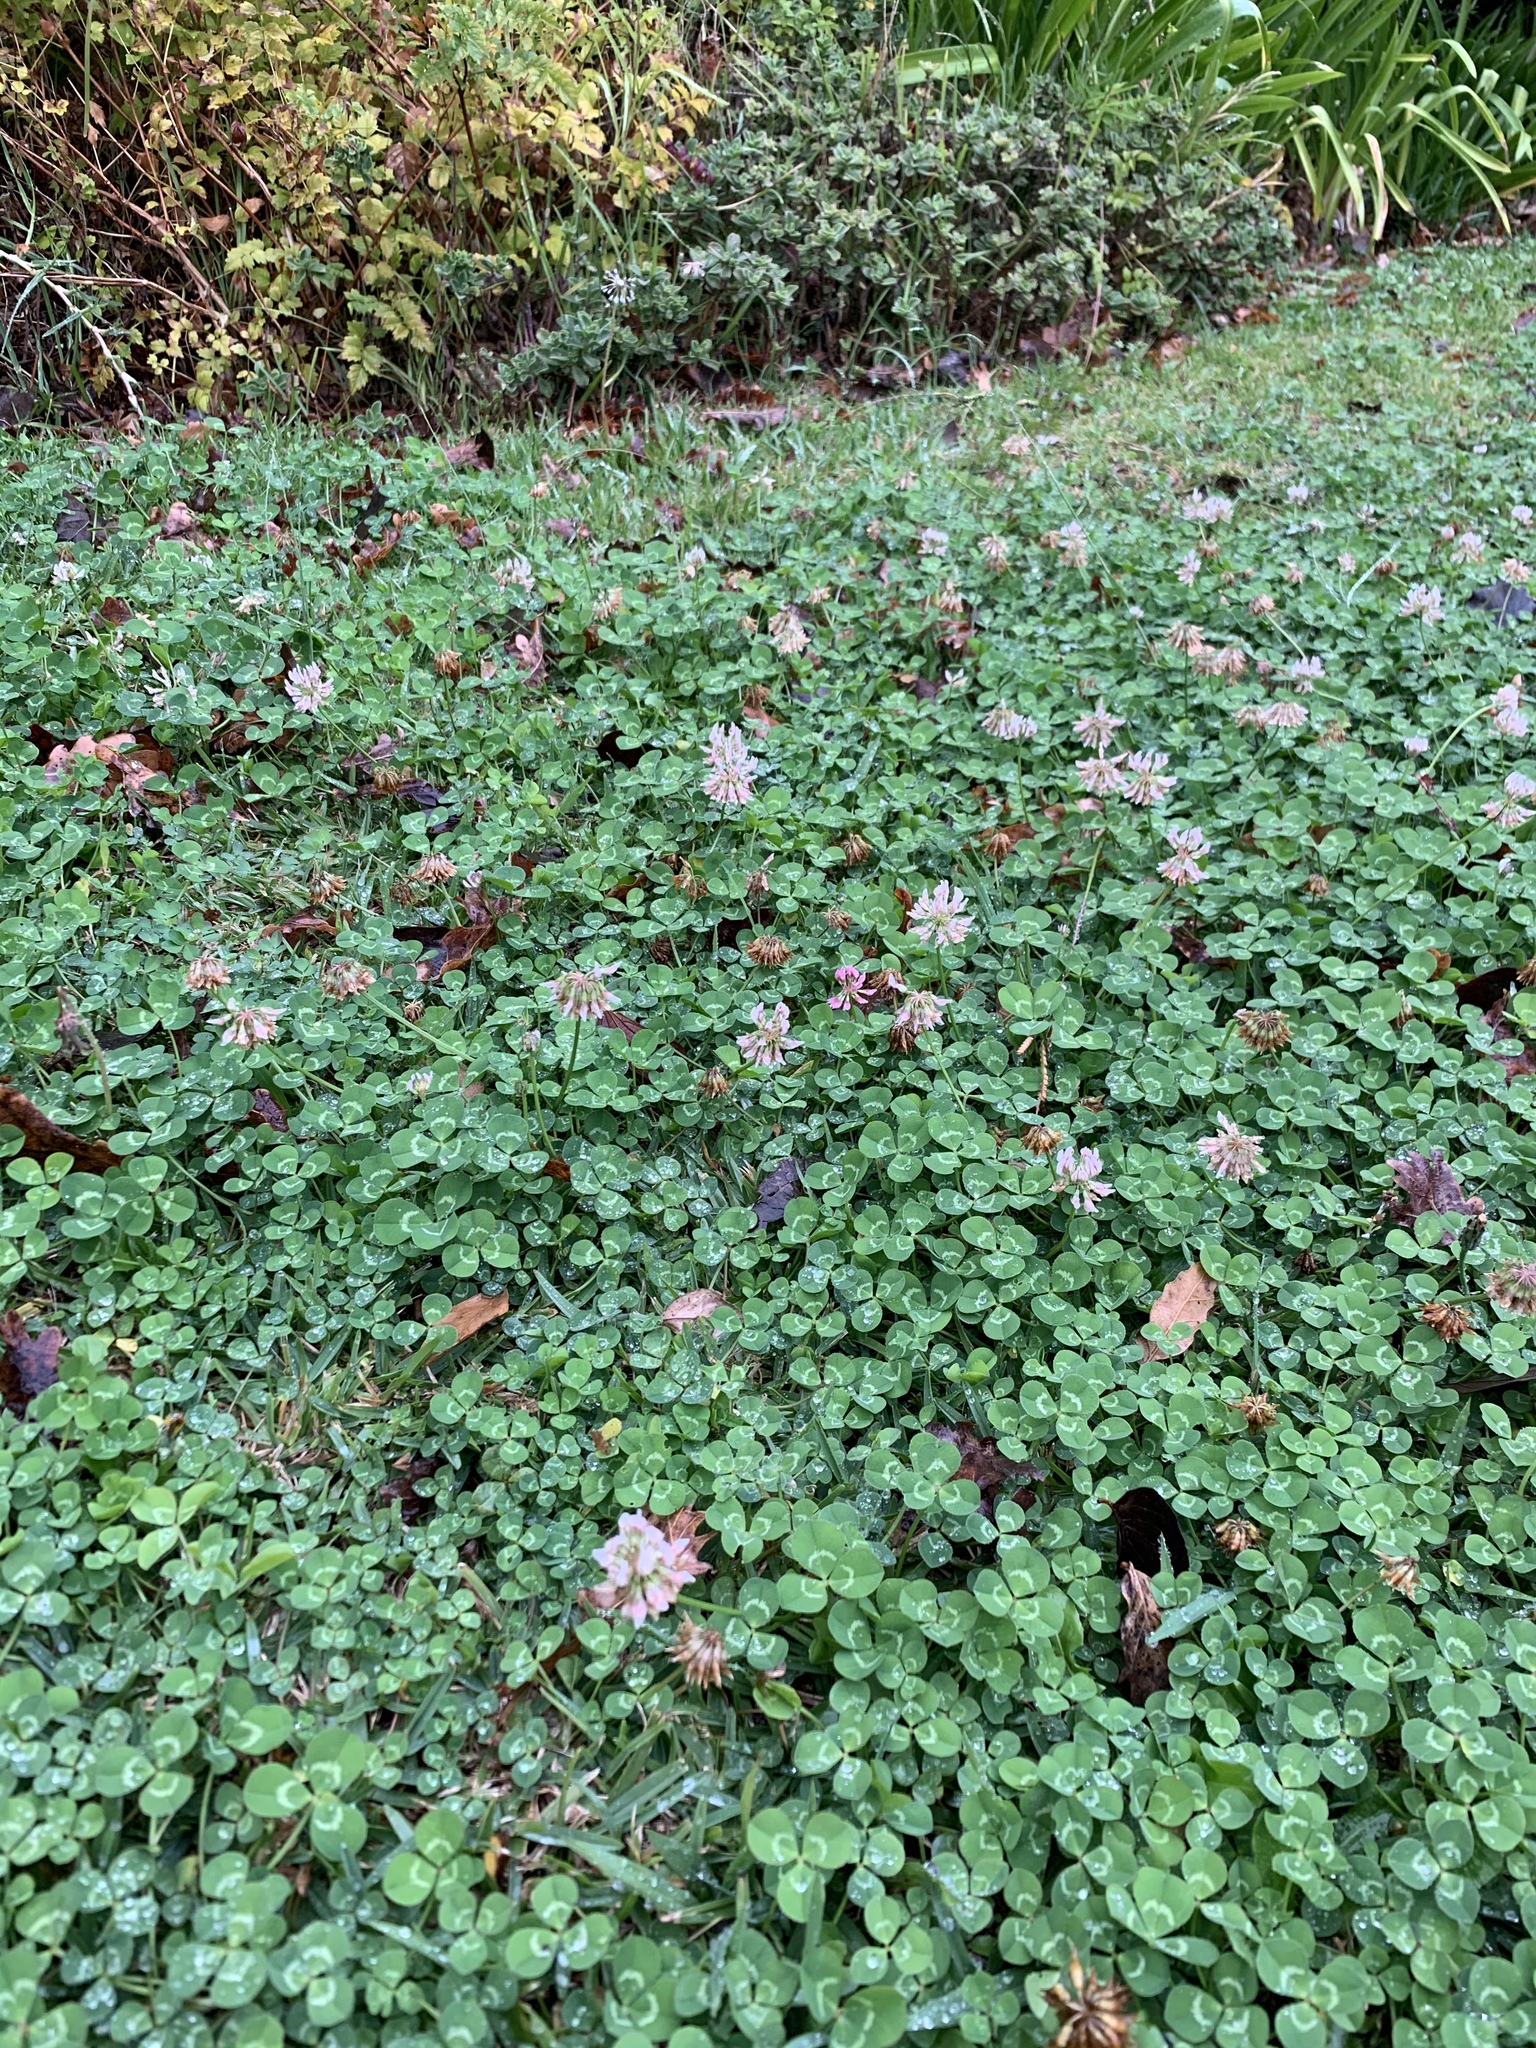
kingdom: Plantae
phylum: Tracheophyta
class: Magnoliopsida
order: Fabales
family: Fabaceae
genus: Trifolium
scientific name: Trifolium repens
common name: White clover
